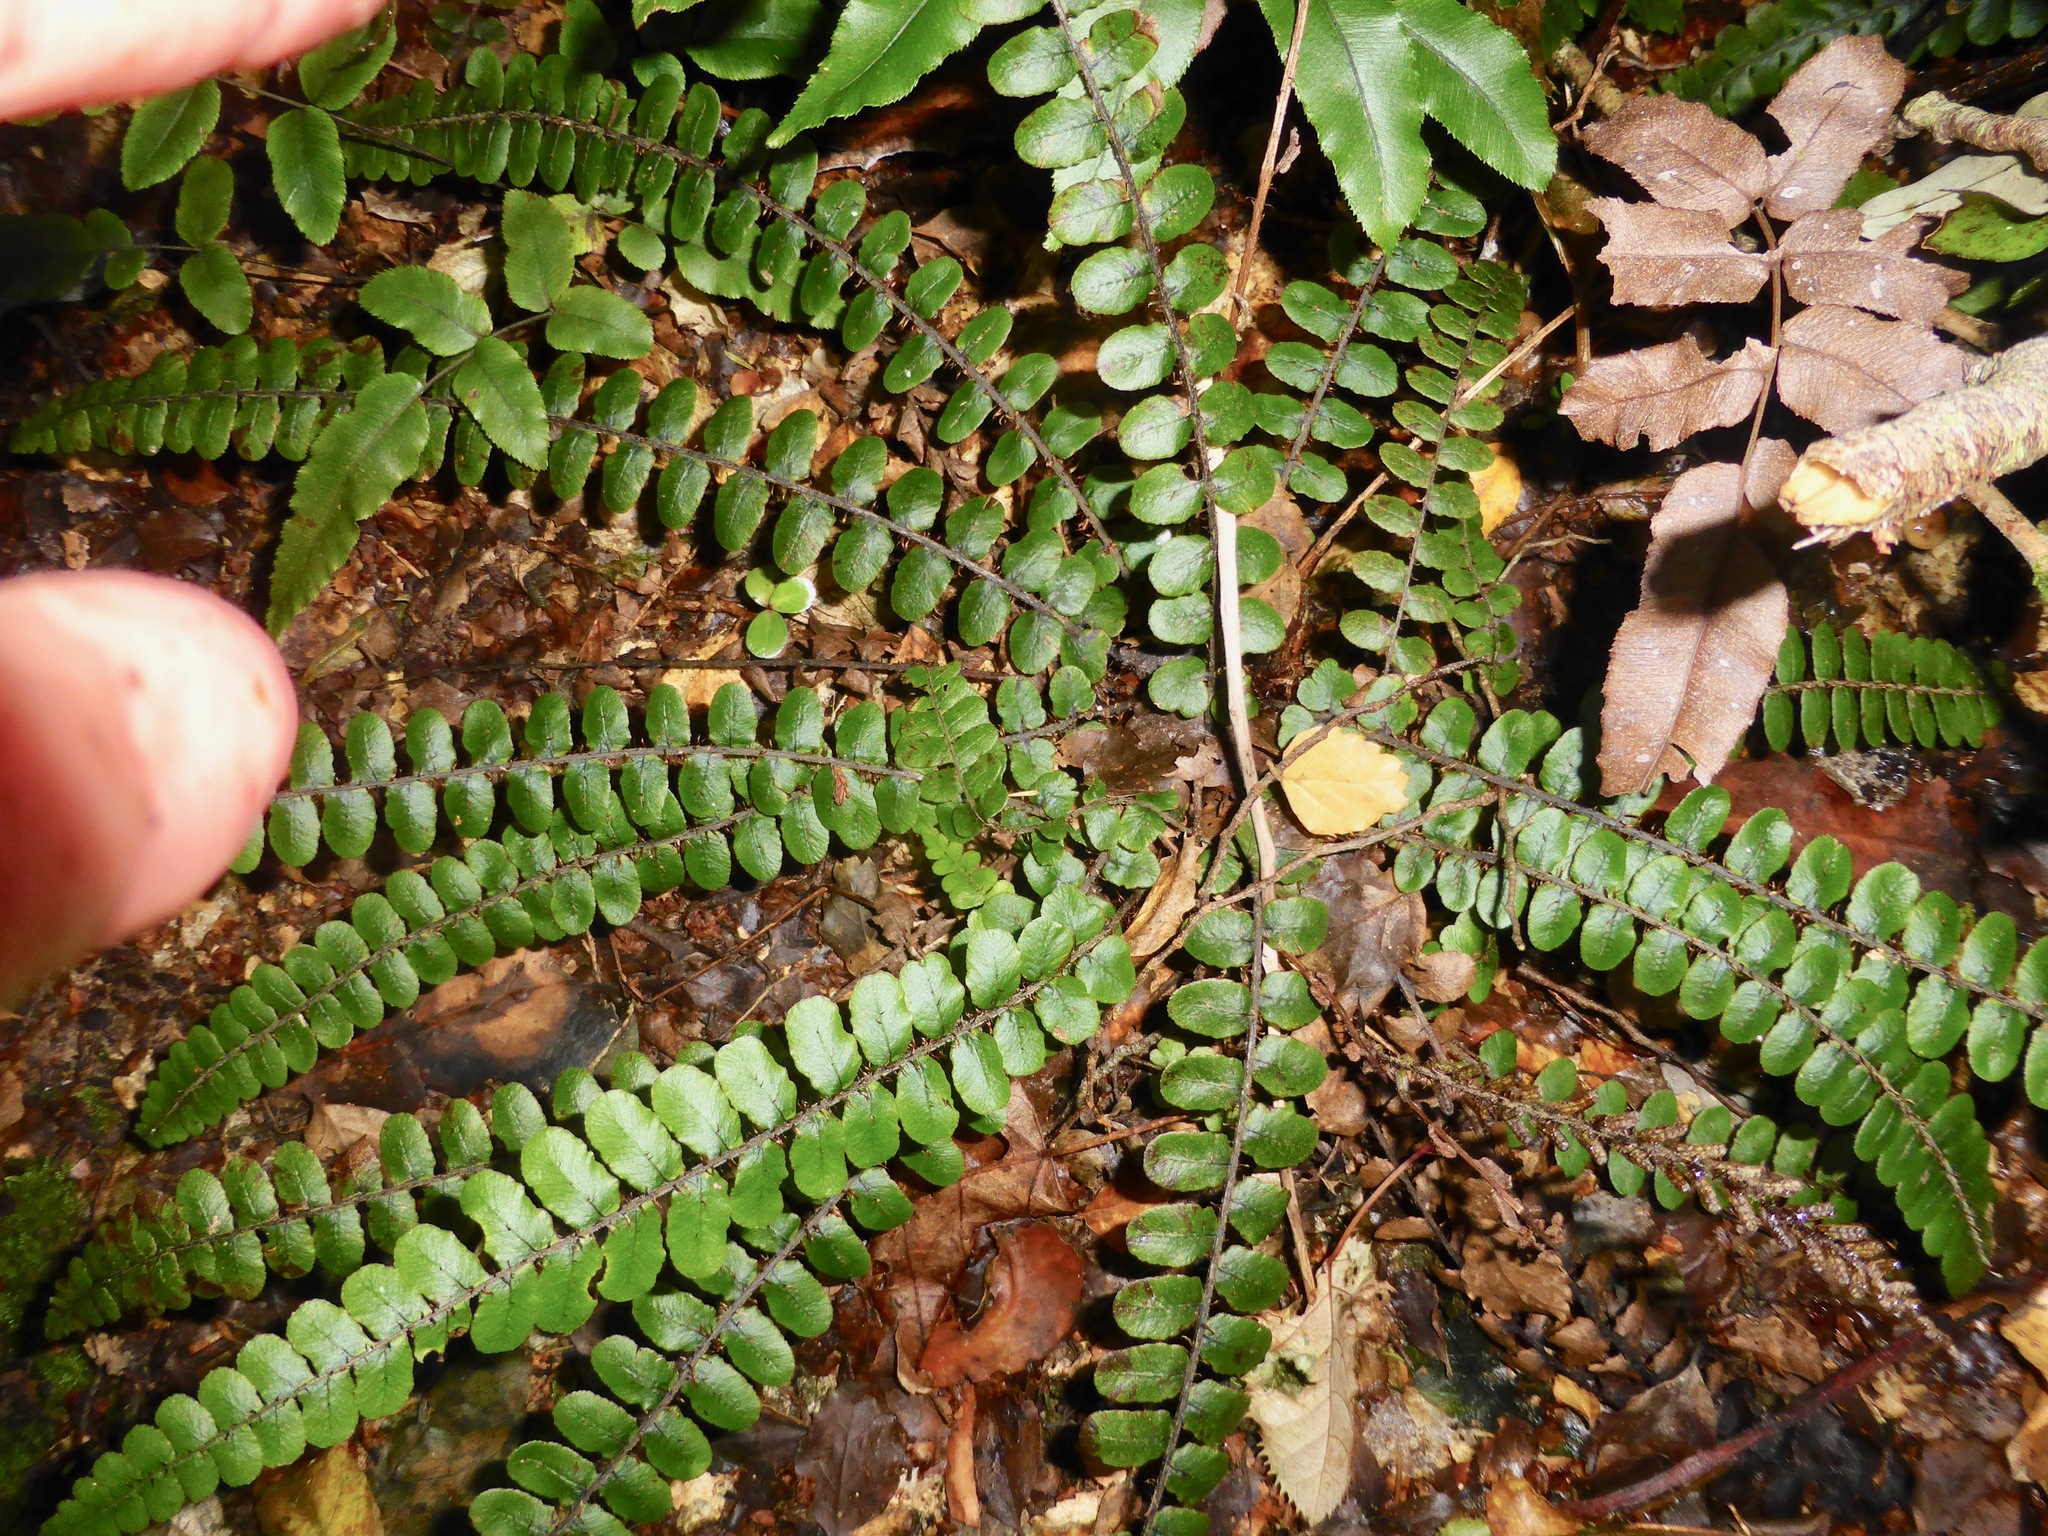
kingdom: Plantae
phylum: Tracheophyta
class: Polypodiopsida
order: Polypodiales
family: Blechnaceae
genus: Cranfillia
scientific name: Cranfillia fluviatilis
